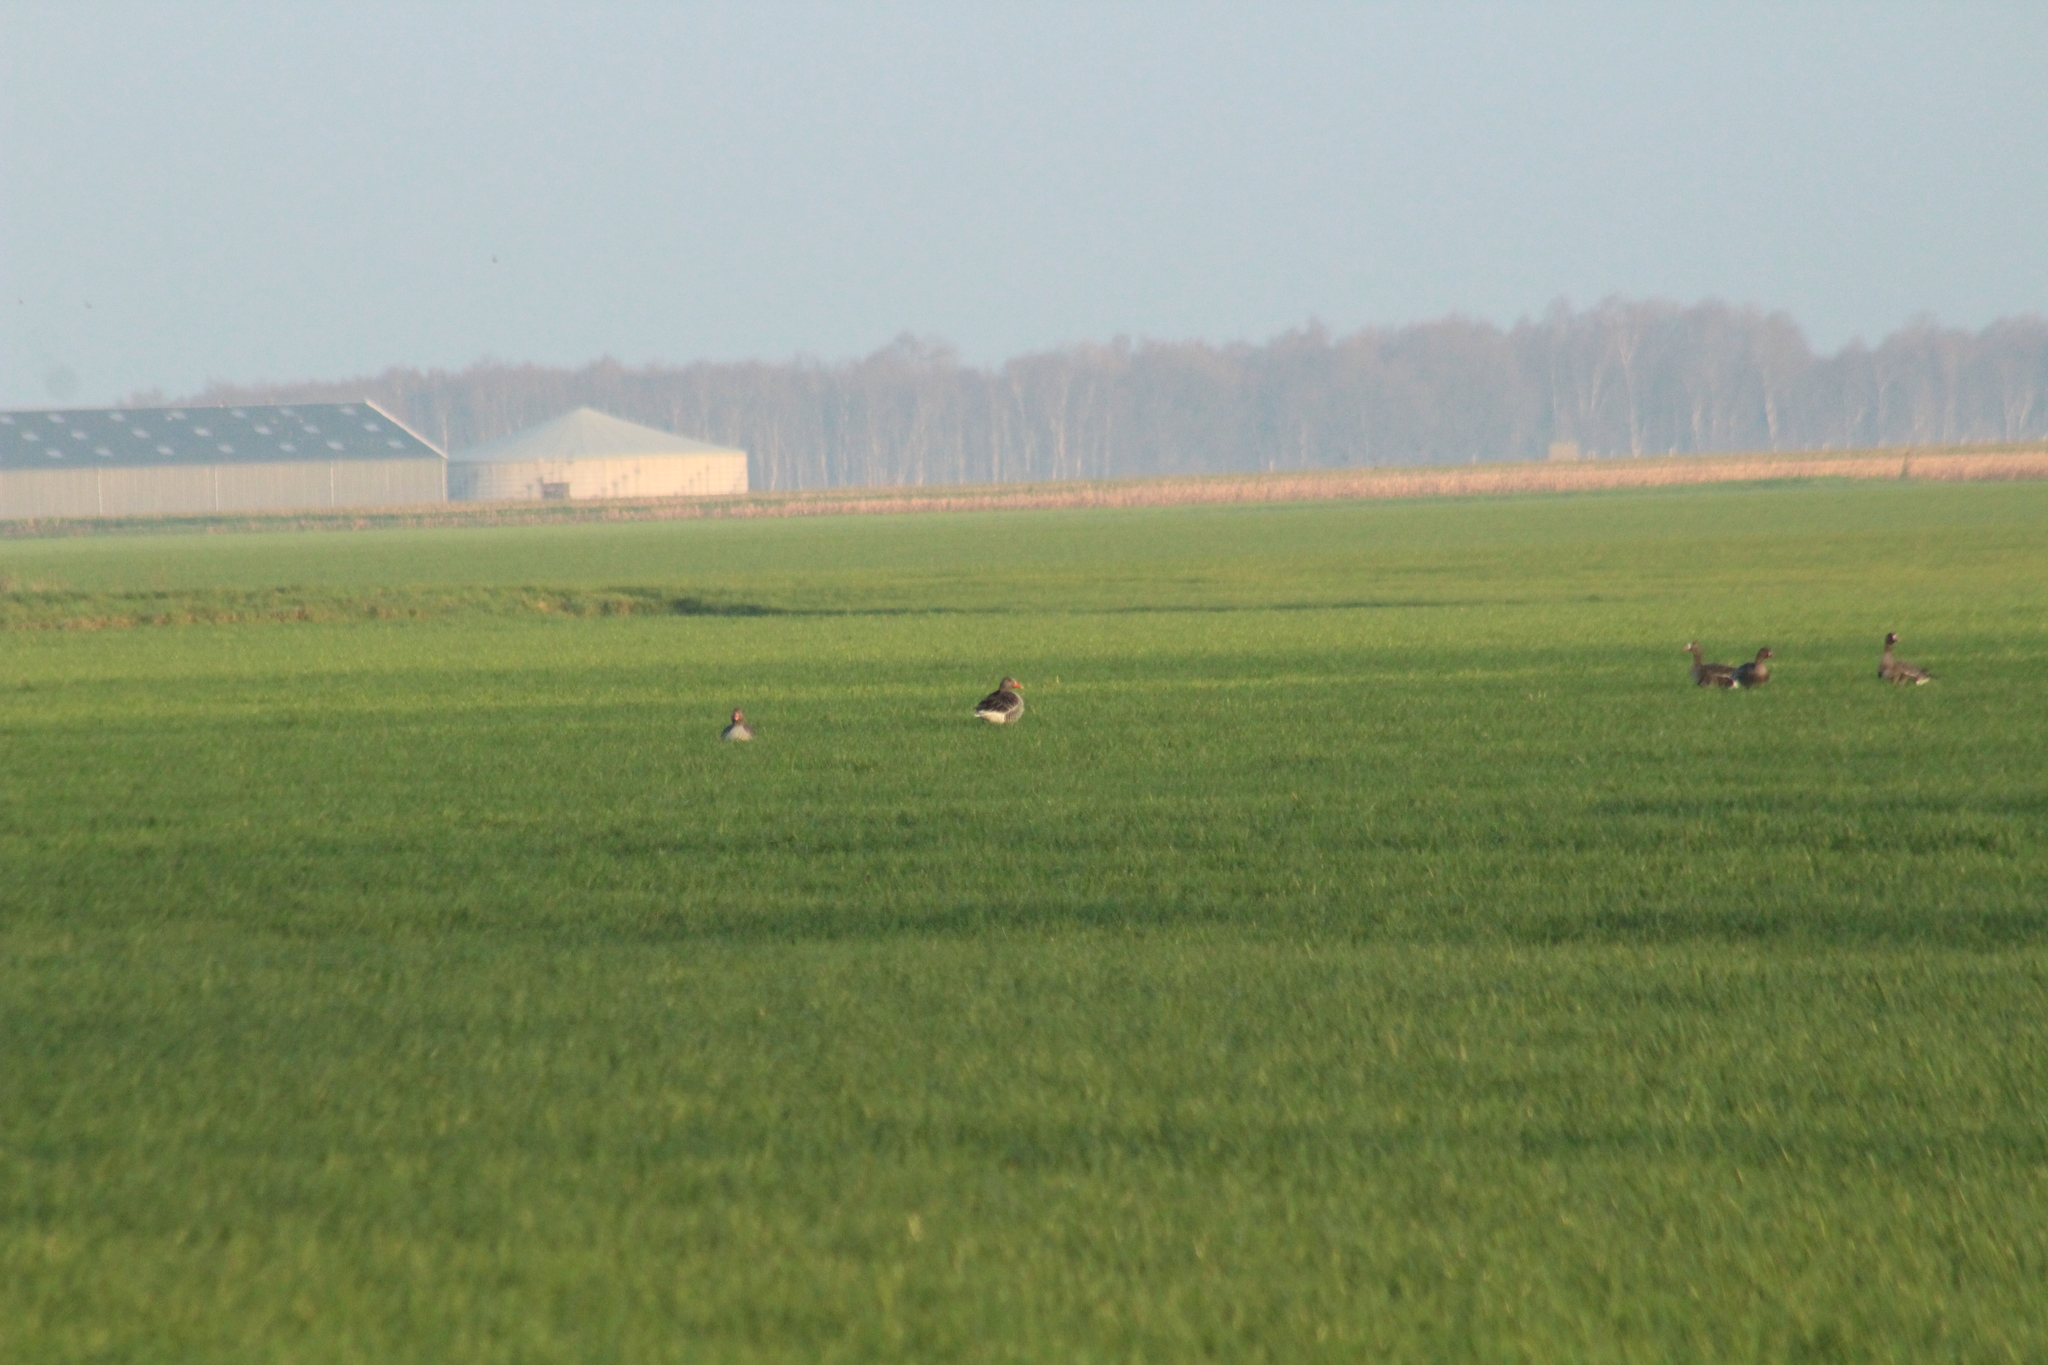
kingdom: Animalia
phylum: Chordata
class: Aves
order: Anseriformes
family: Anatidae
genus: Anser
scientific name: Anser anser
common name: Greylag goose
